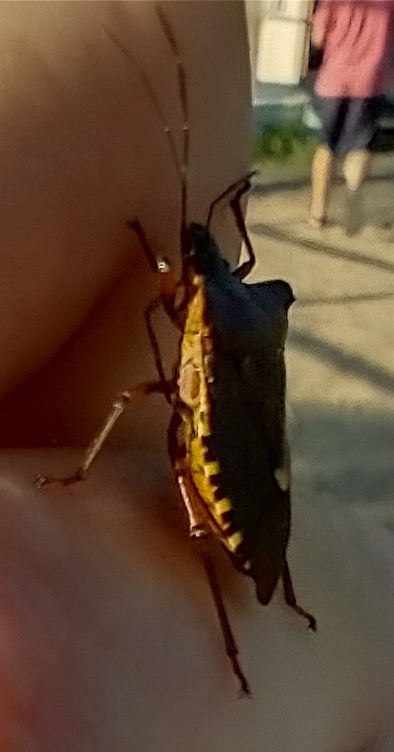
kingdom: Animalia
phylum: Arthropoda
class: Insecta
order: Hemiptera
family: Pentatomidae
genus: Pentatoma
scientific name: Pentatoma rufipes
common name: Forest bug
